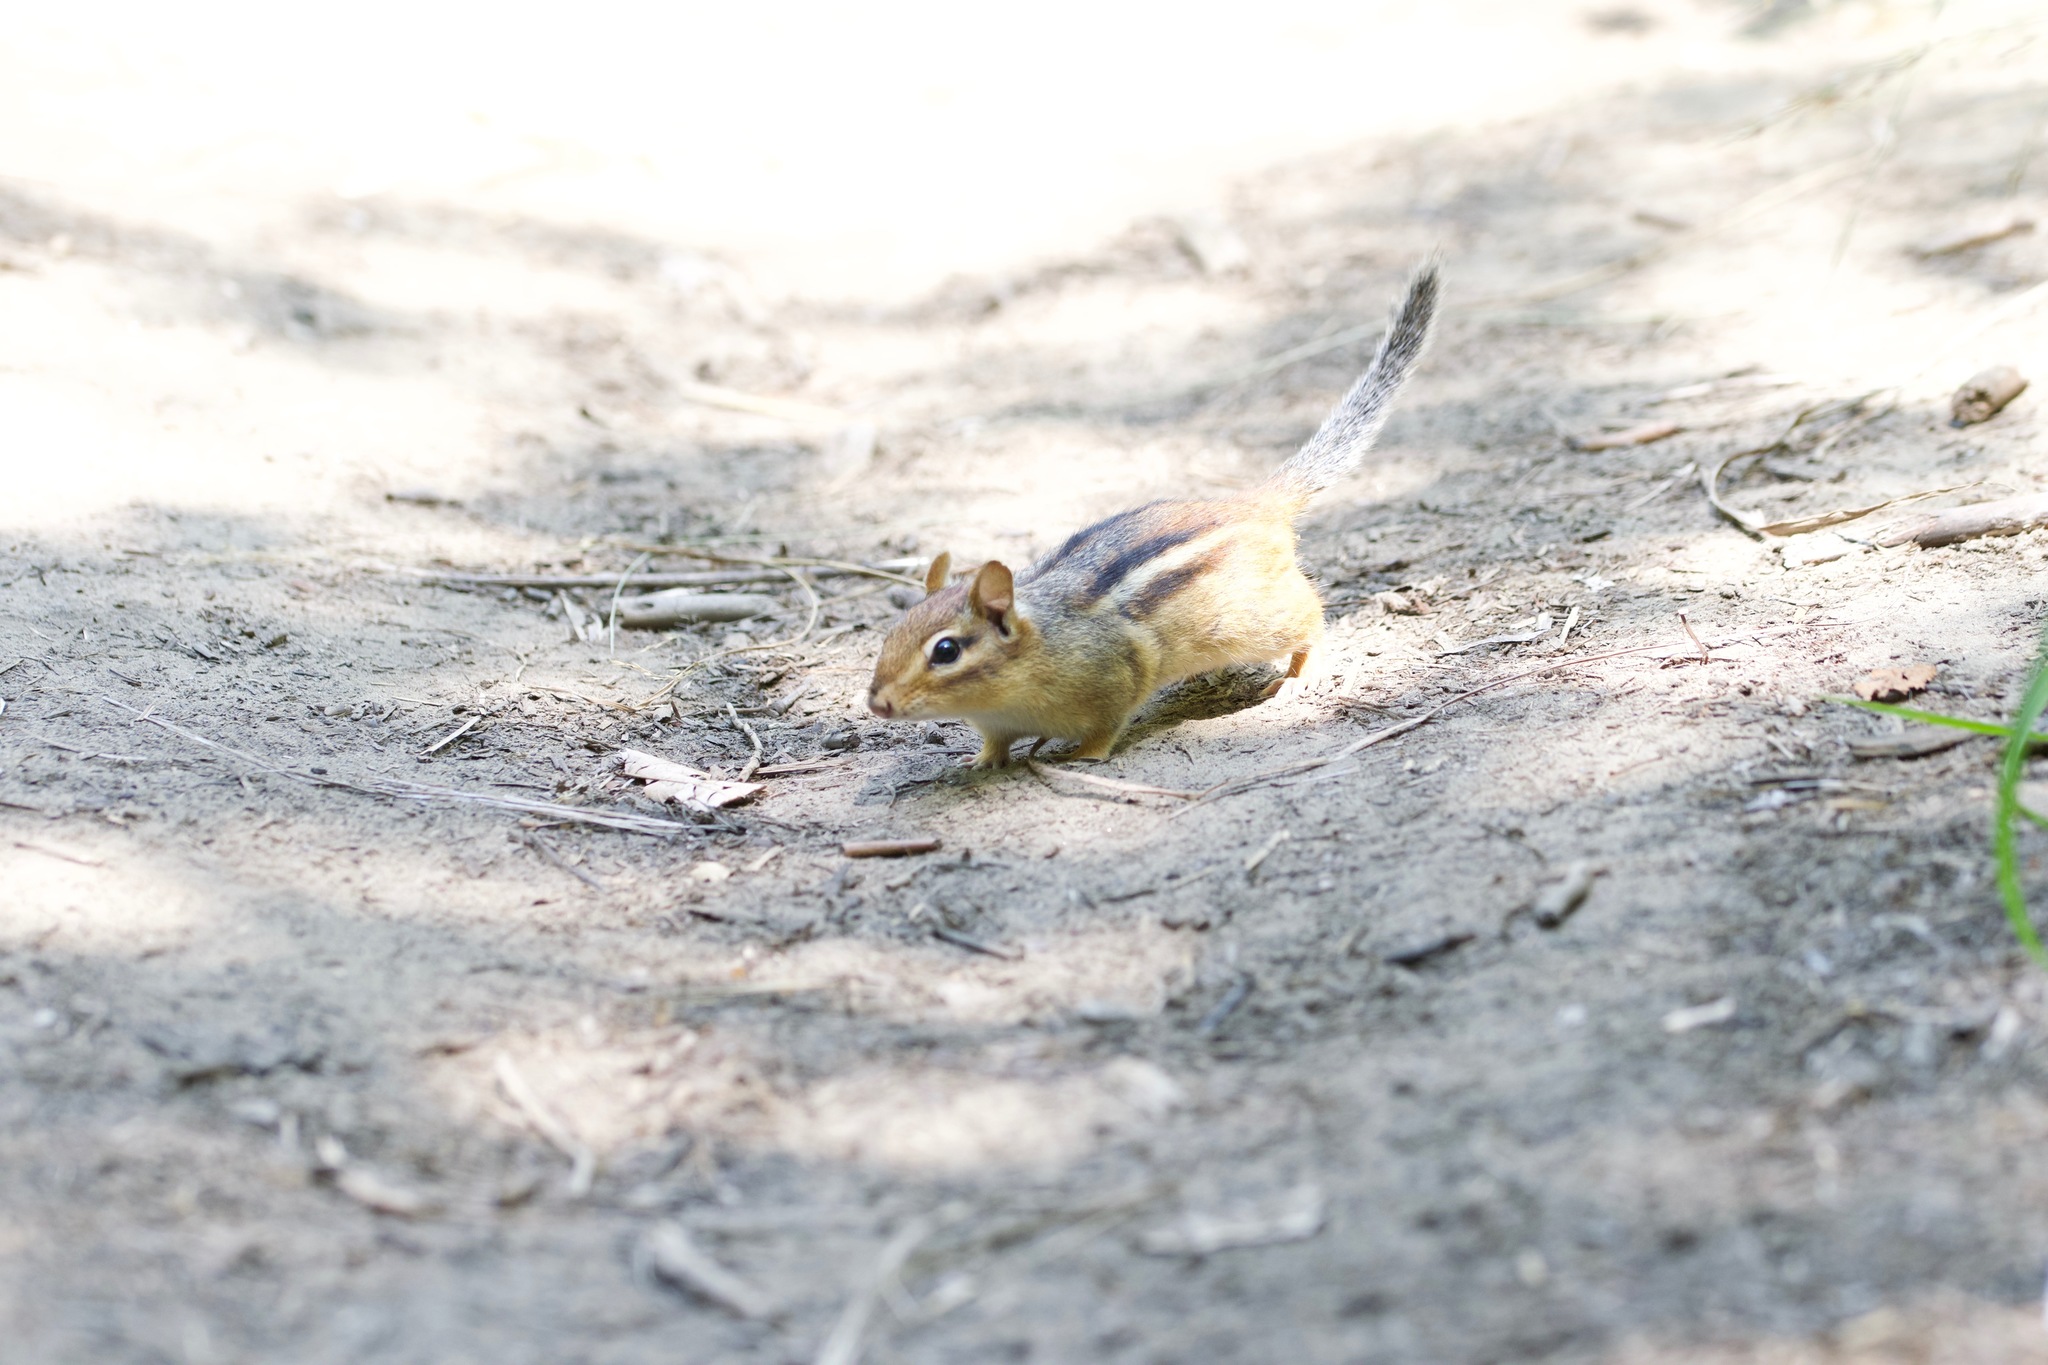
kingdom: Animalia
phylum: Chordata
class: Mammalia
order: Rodentia
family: Sciuridae
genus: Tamias
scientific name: Tamias striatus
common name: Eastern chipmunk
